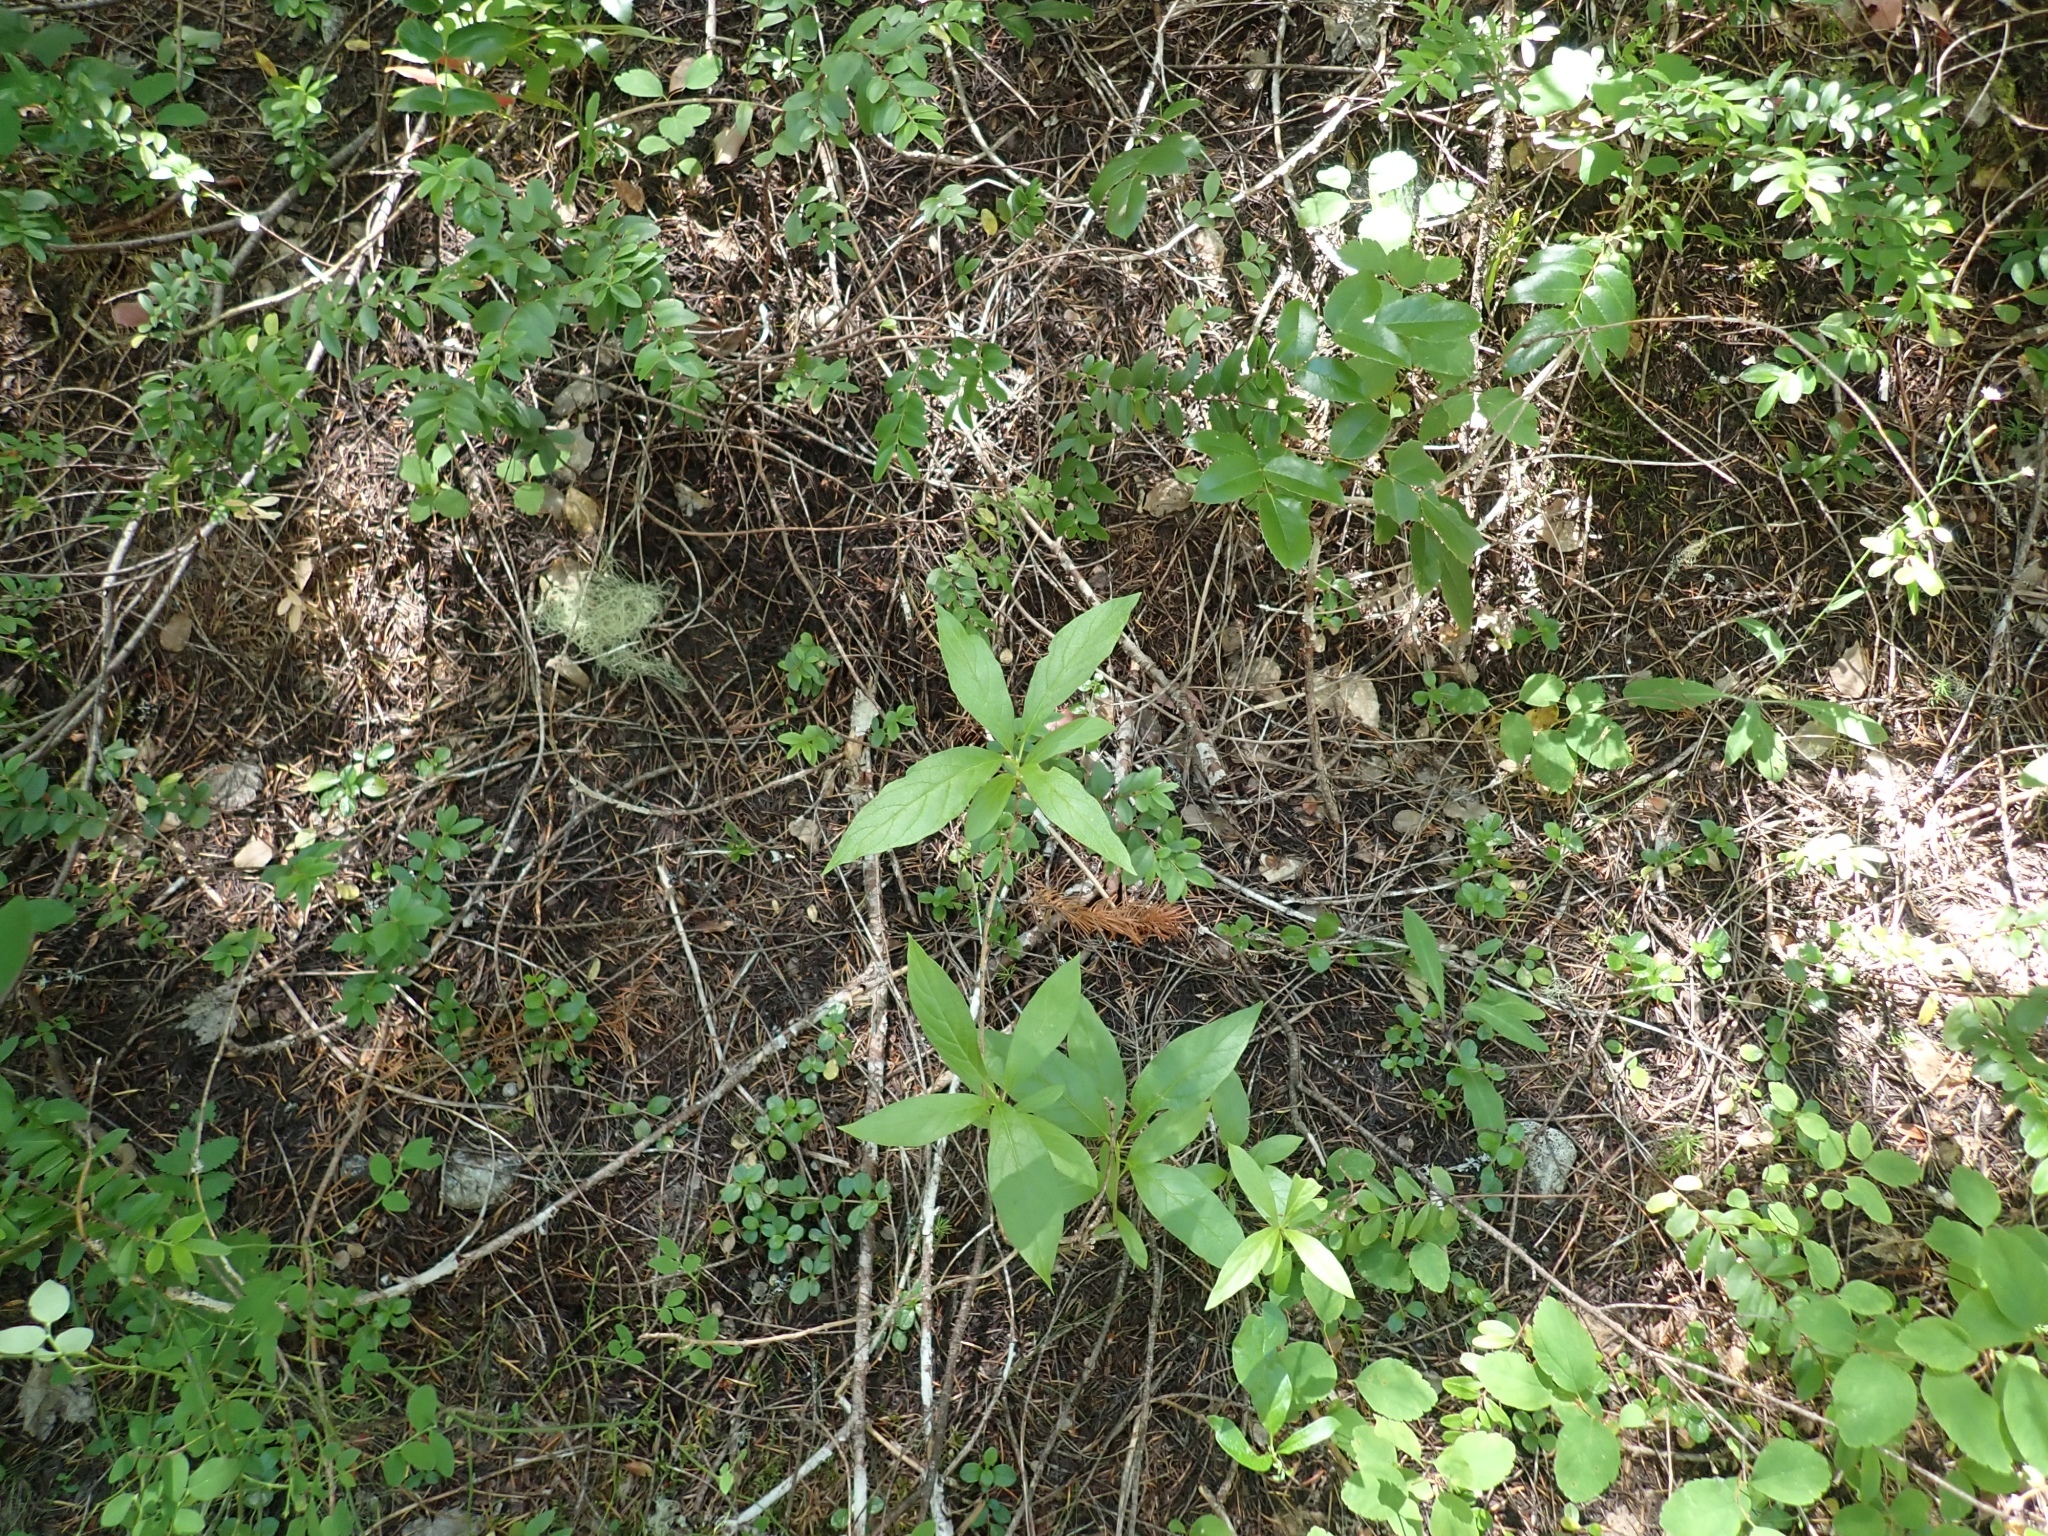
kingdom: Plantae
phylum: Tracheophyta
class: Magnoliopsida
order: Dipsacales
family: Caprifoliaceae
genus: Lonicera
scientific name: Lonicera involucrata
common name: Californian honeysuckle
